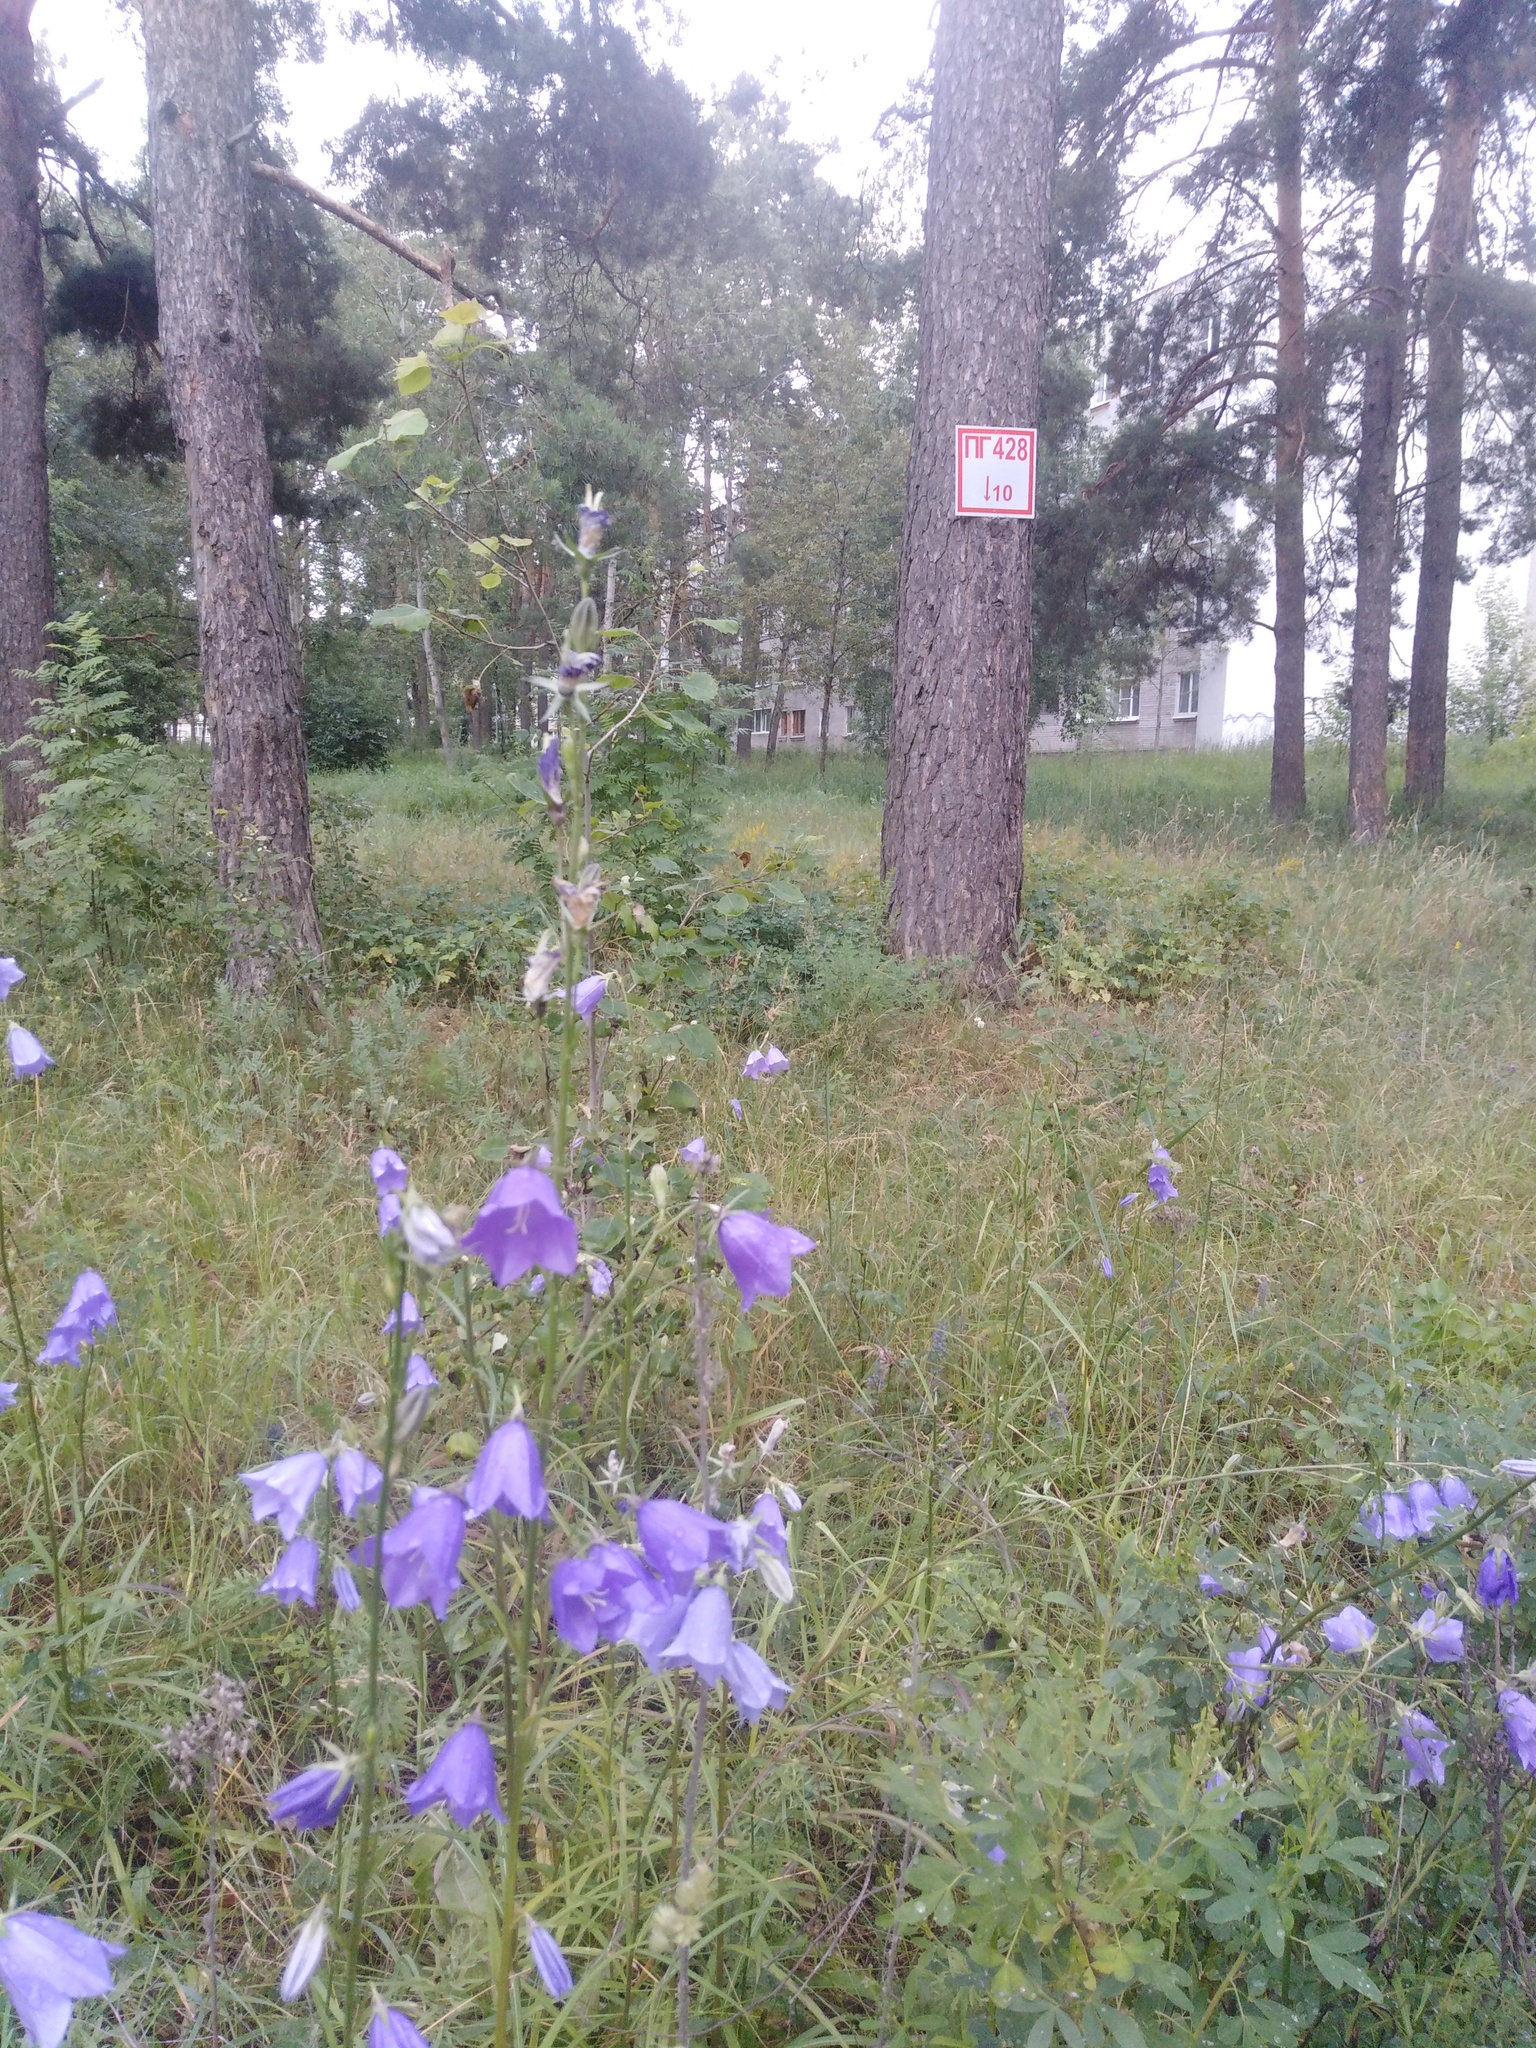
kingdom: Plantae
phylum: Tracheophyta
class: Magnoliopsida
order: Asterales
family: Campanulaceae
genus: Campanula
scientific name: Campanula persicifolia
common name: Peach-leaved bellflower
